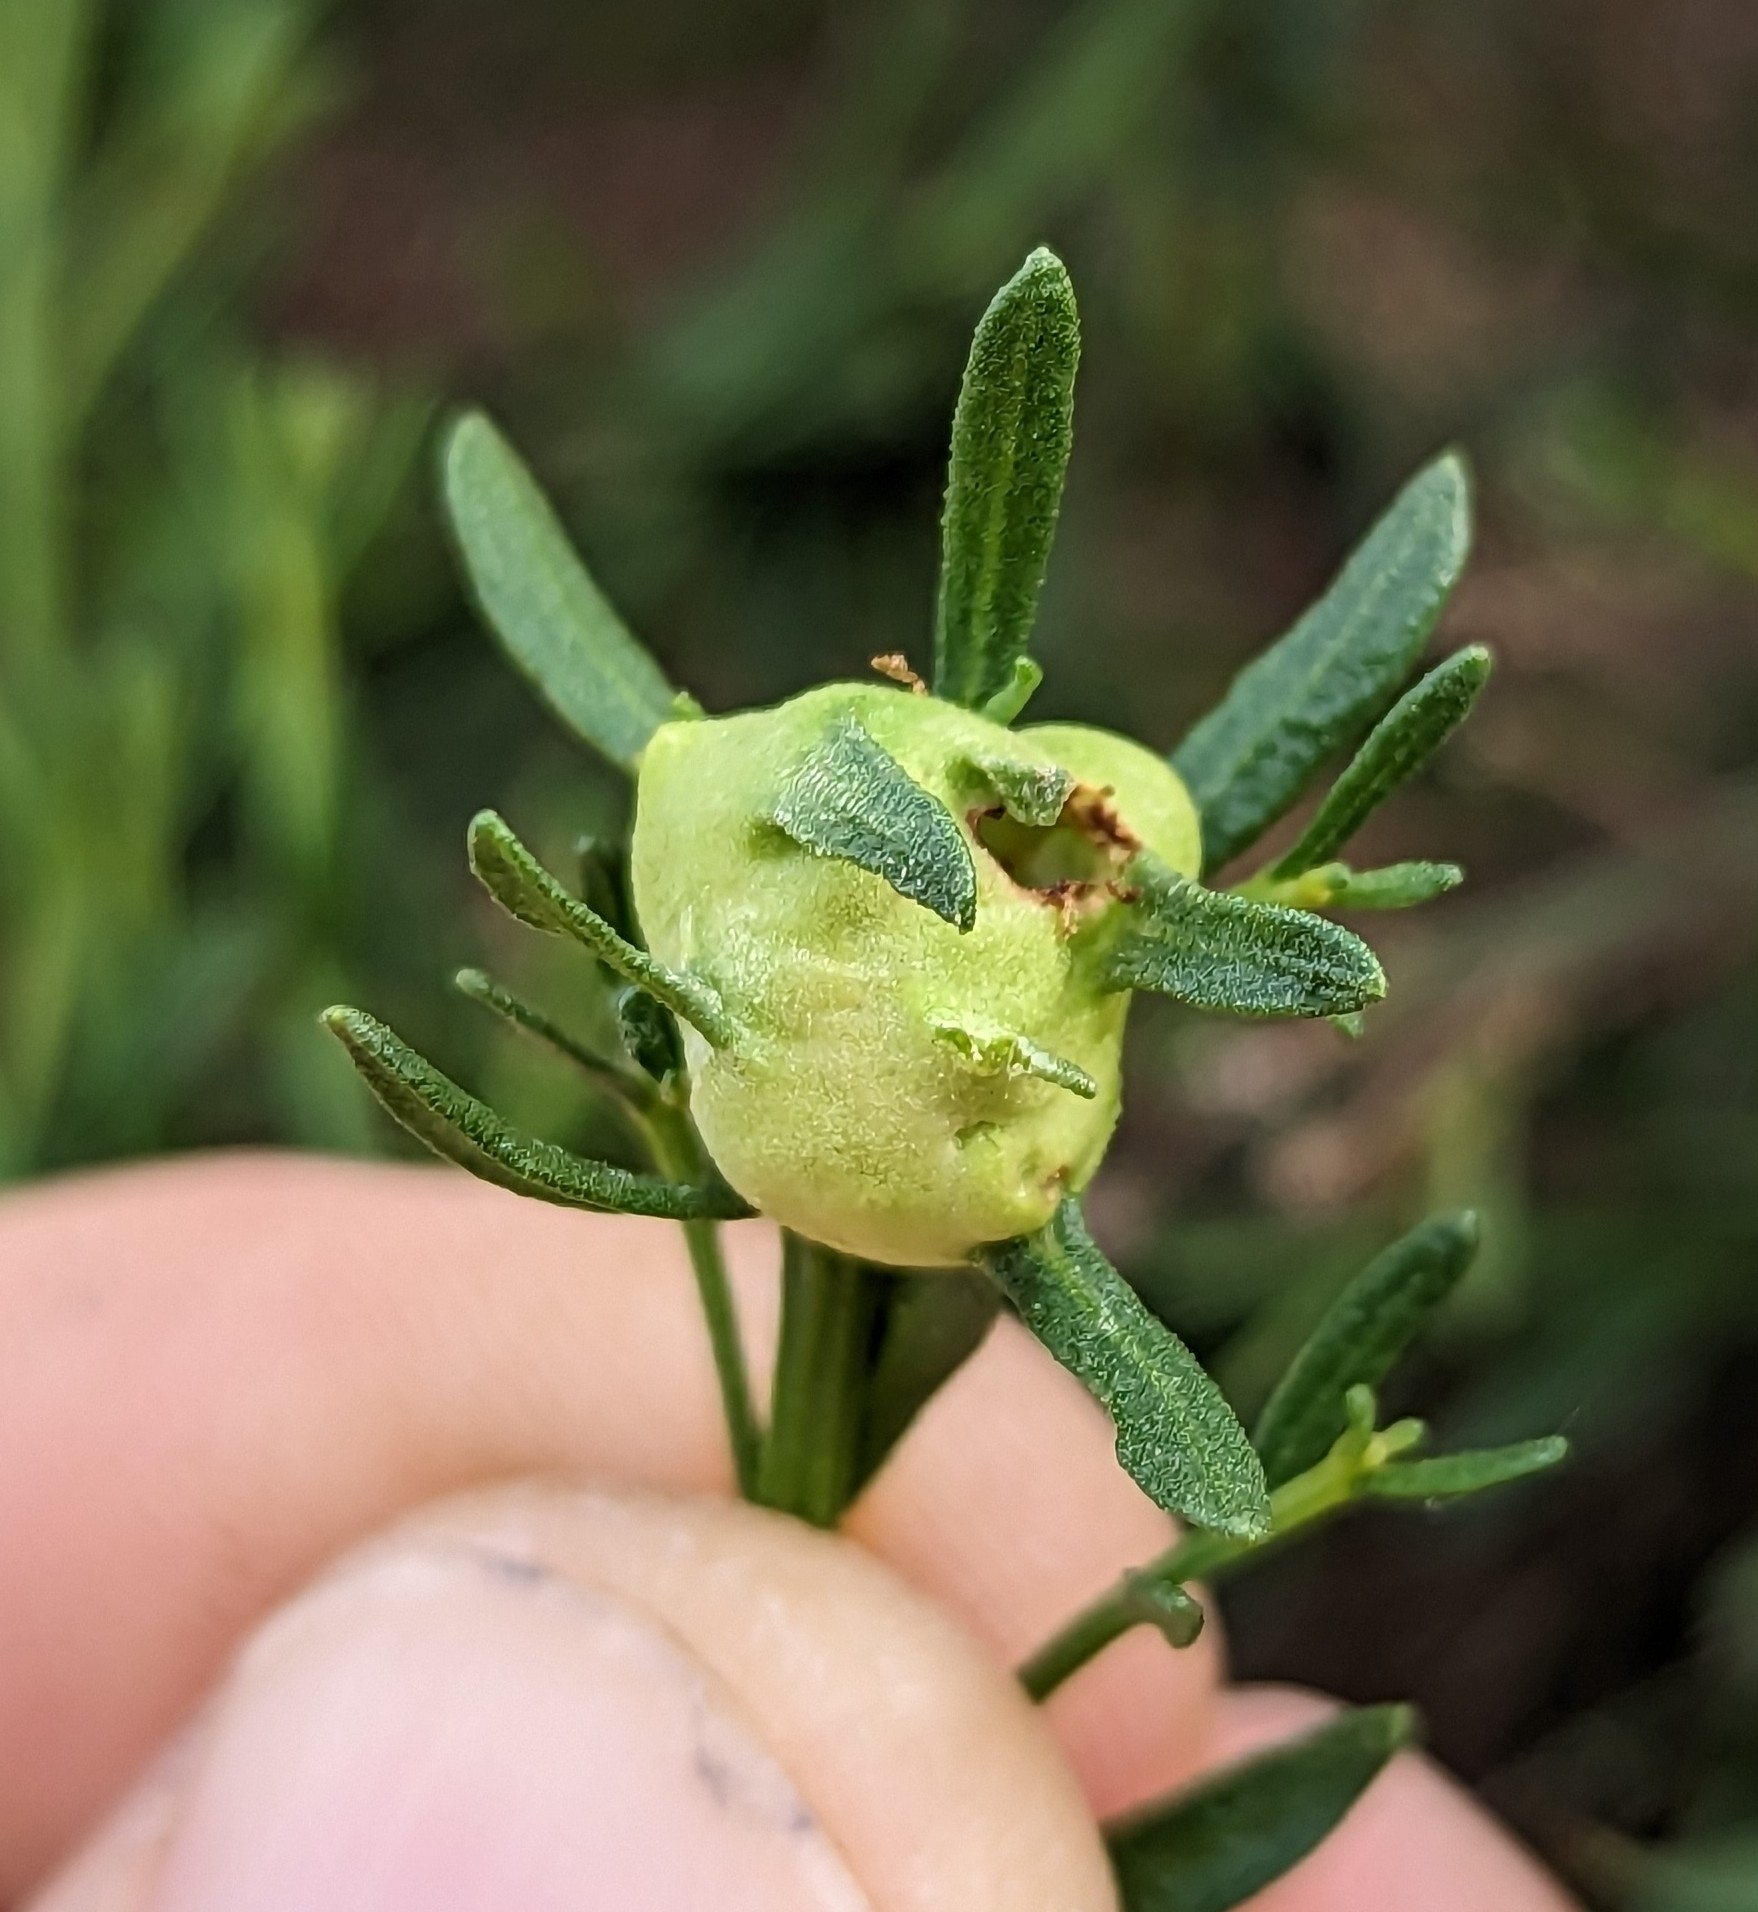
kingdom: Animalia
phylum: Arthropoda
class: Insecta
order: Diptera
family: Cecidomyiidae
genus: Rhopalomyia
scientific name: Rhopalomyia californica
